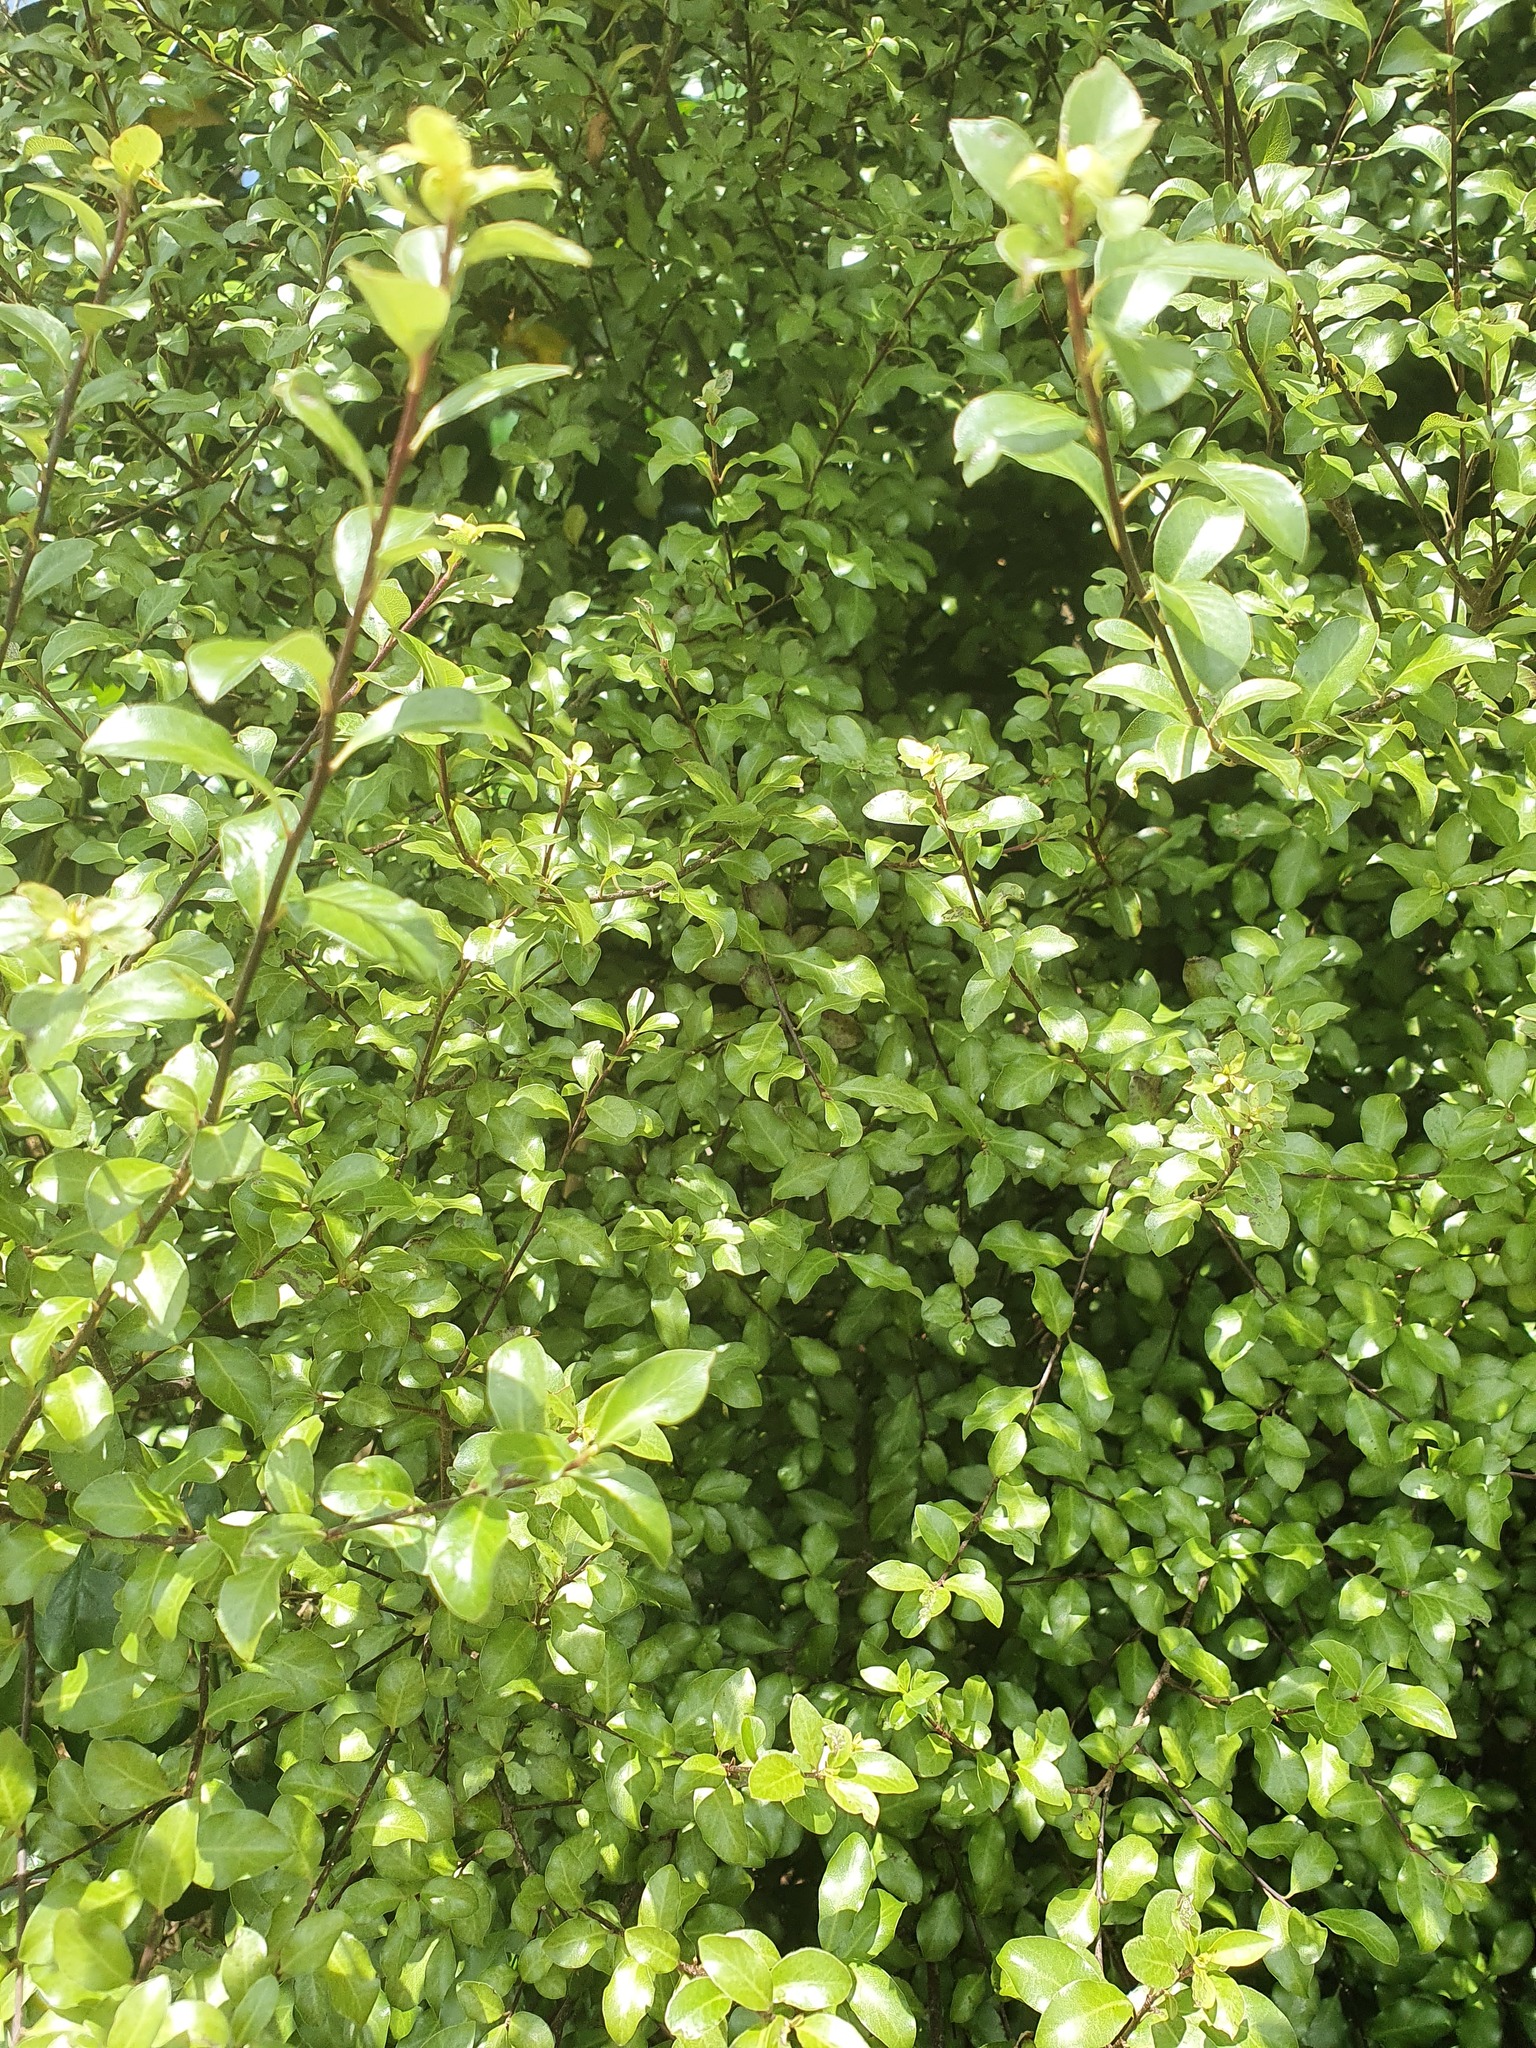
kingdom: Plantae
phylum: Tracheophyta
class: Magnoliopsida
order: Apiales
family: Pittosporaceae
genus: Pittosporum
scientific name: Pittosporum tenuifolium
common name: Kohuhu
